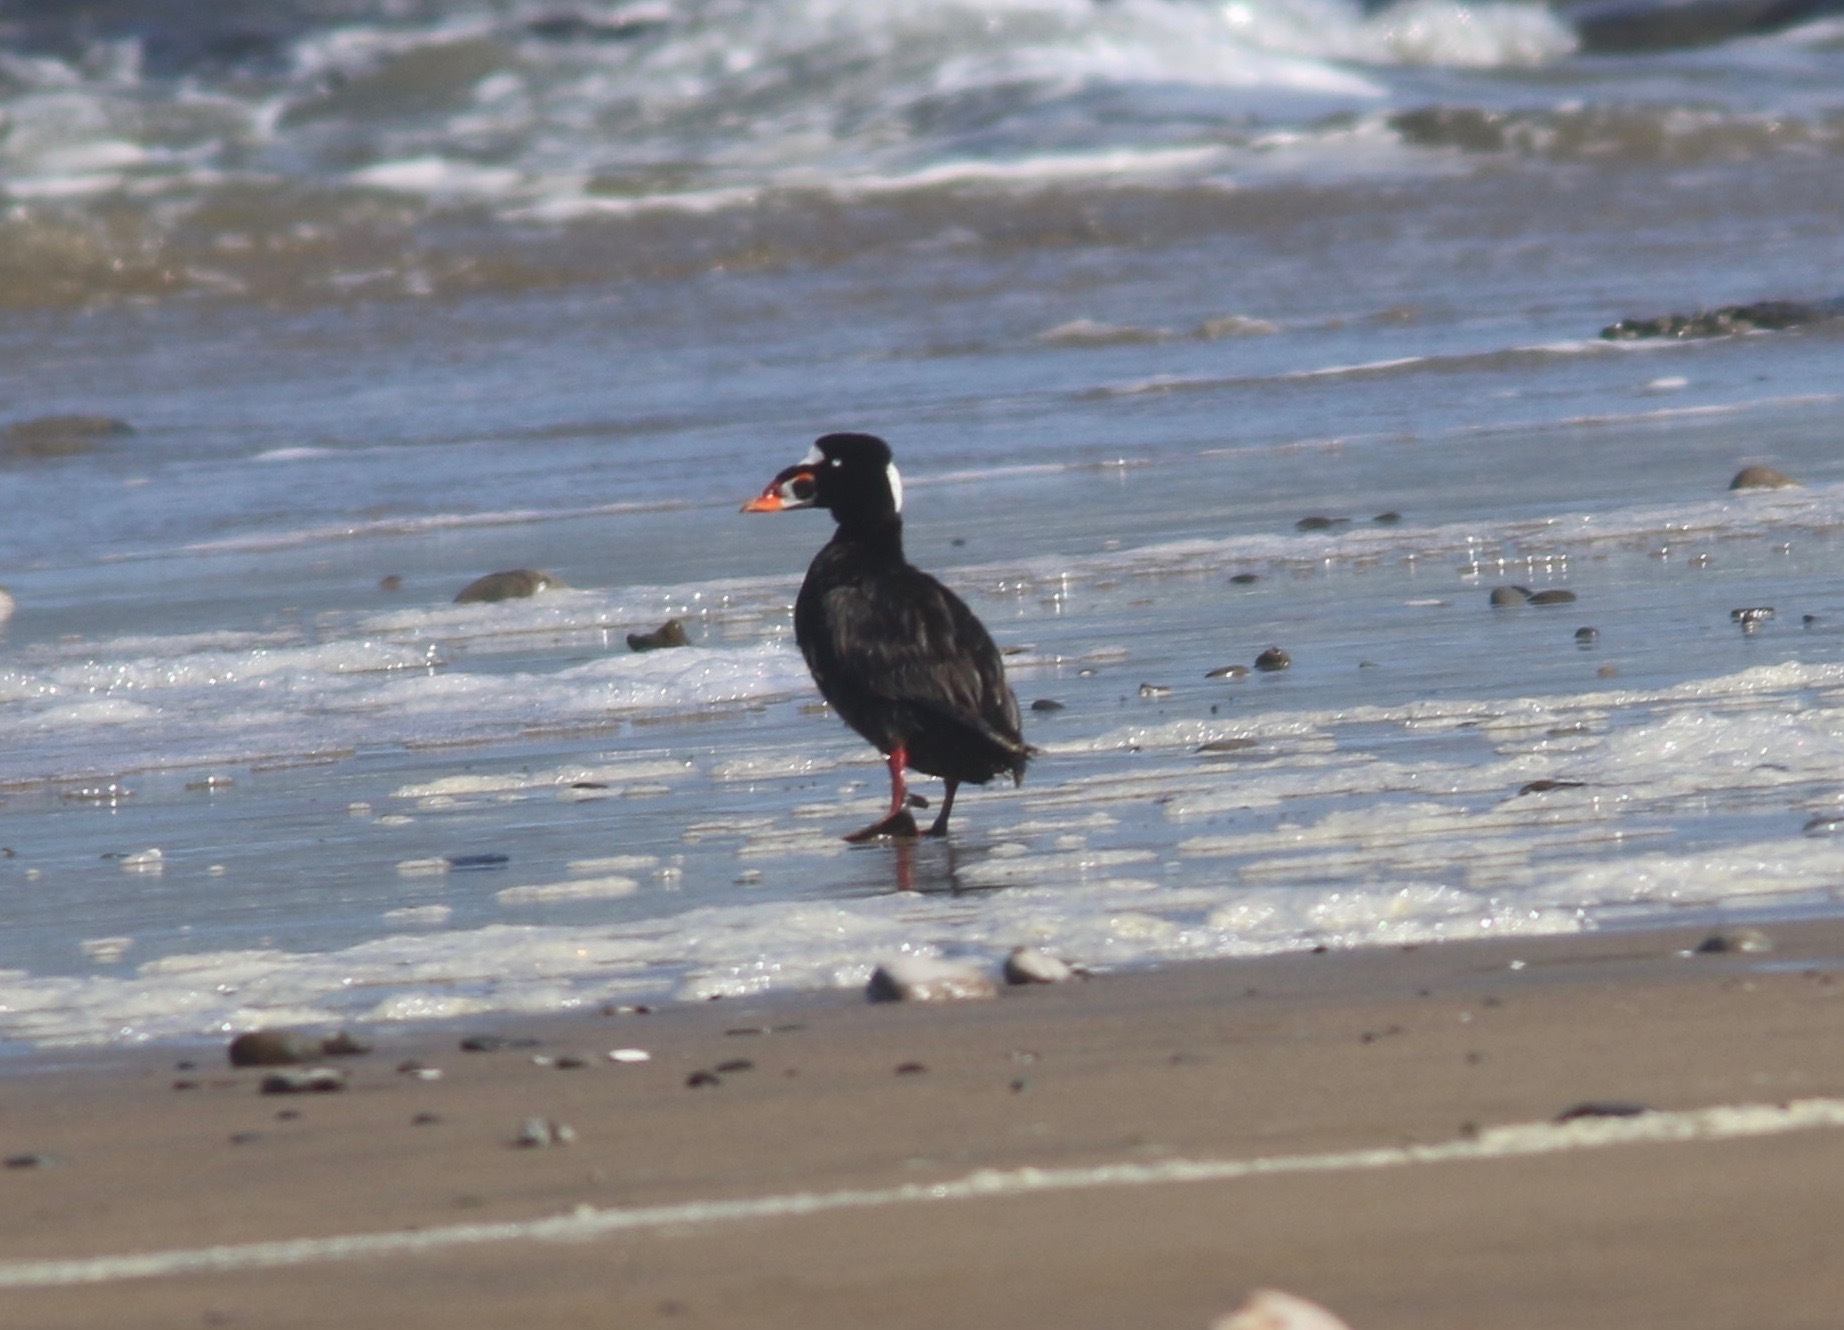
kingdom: Animalia
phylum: Chordata
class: Aves
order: Anseriformes
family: Anatidae
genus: Melanitta
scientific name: Melanitta perspicillata
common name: Surf scoter
